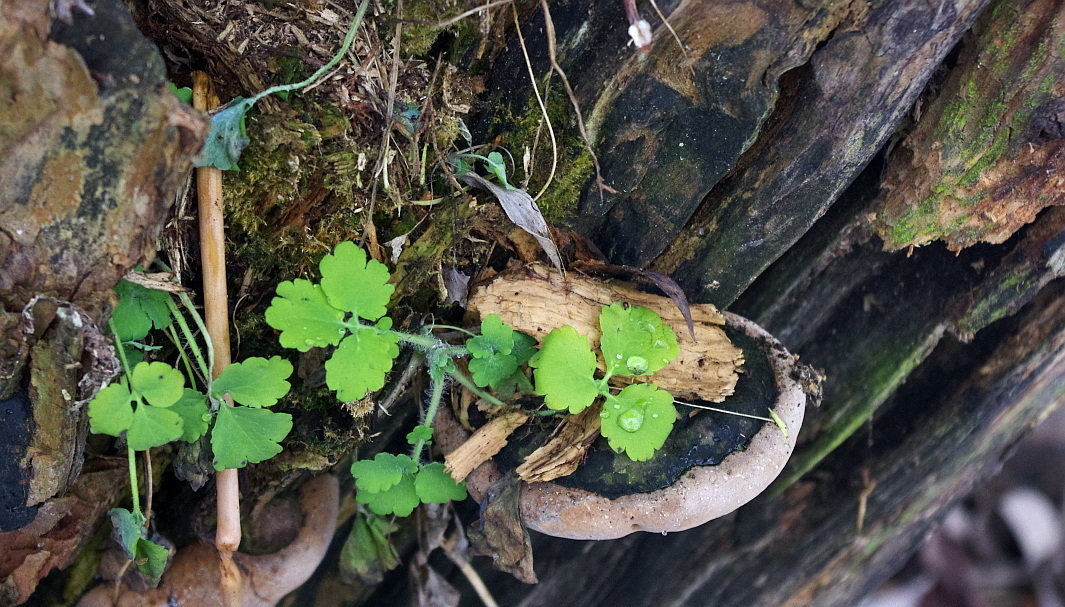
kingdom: Plantae
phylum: Tracheophyta
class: Magnoliopsida
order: Ranunculales
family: Papaveraceae
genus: Chelidonium
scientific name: Chelidonium majus
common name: Greater celandine
